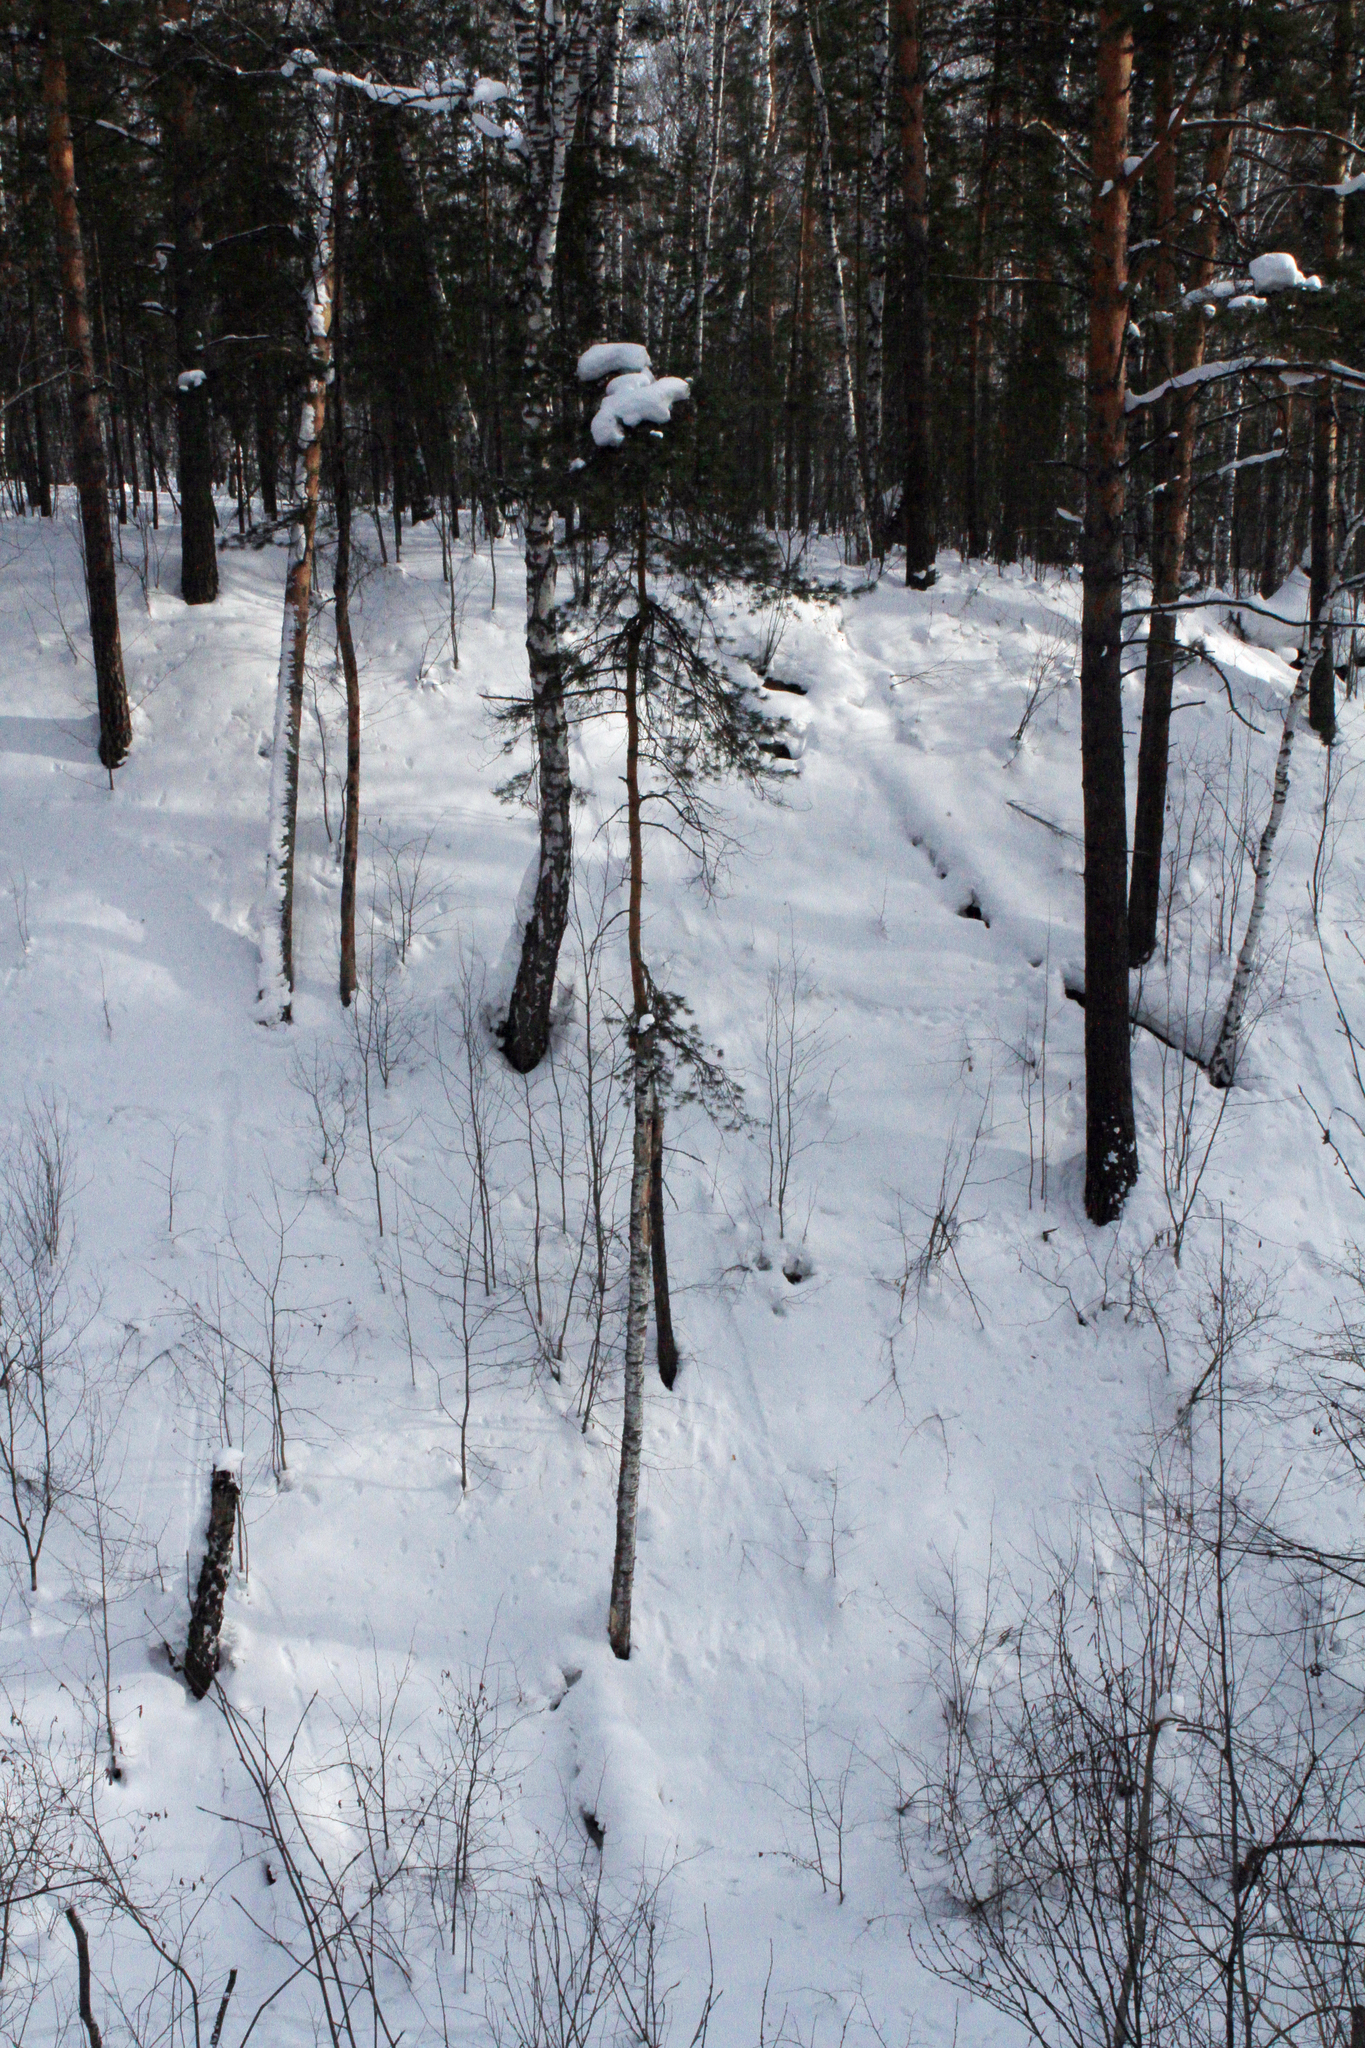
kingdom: Plantae
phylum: Tracheophyta
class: Pinopsida
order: Pinales
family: Pinaceae
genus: Pinus
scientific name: Pinus sylvestris
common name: Scots pine
